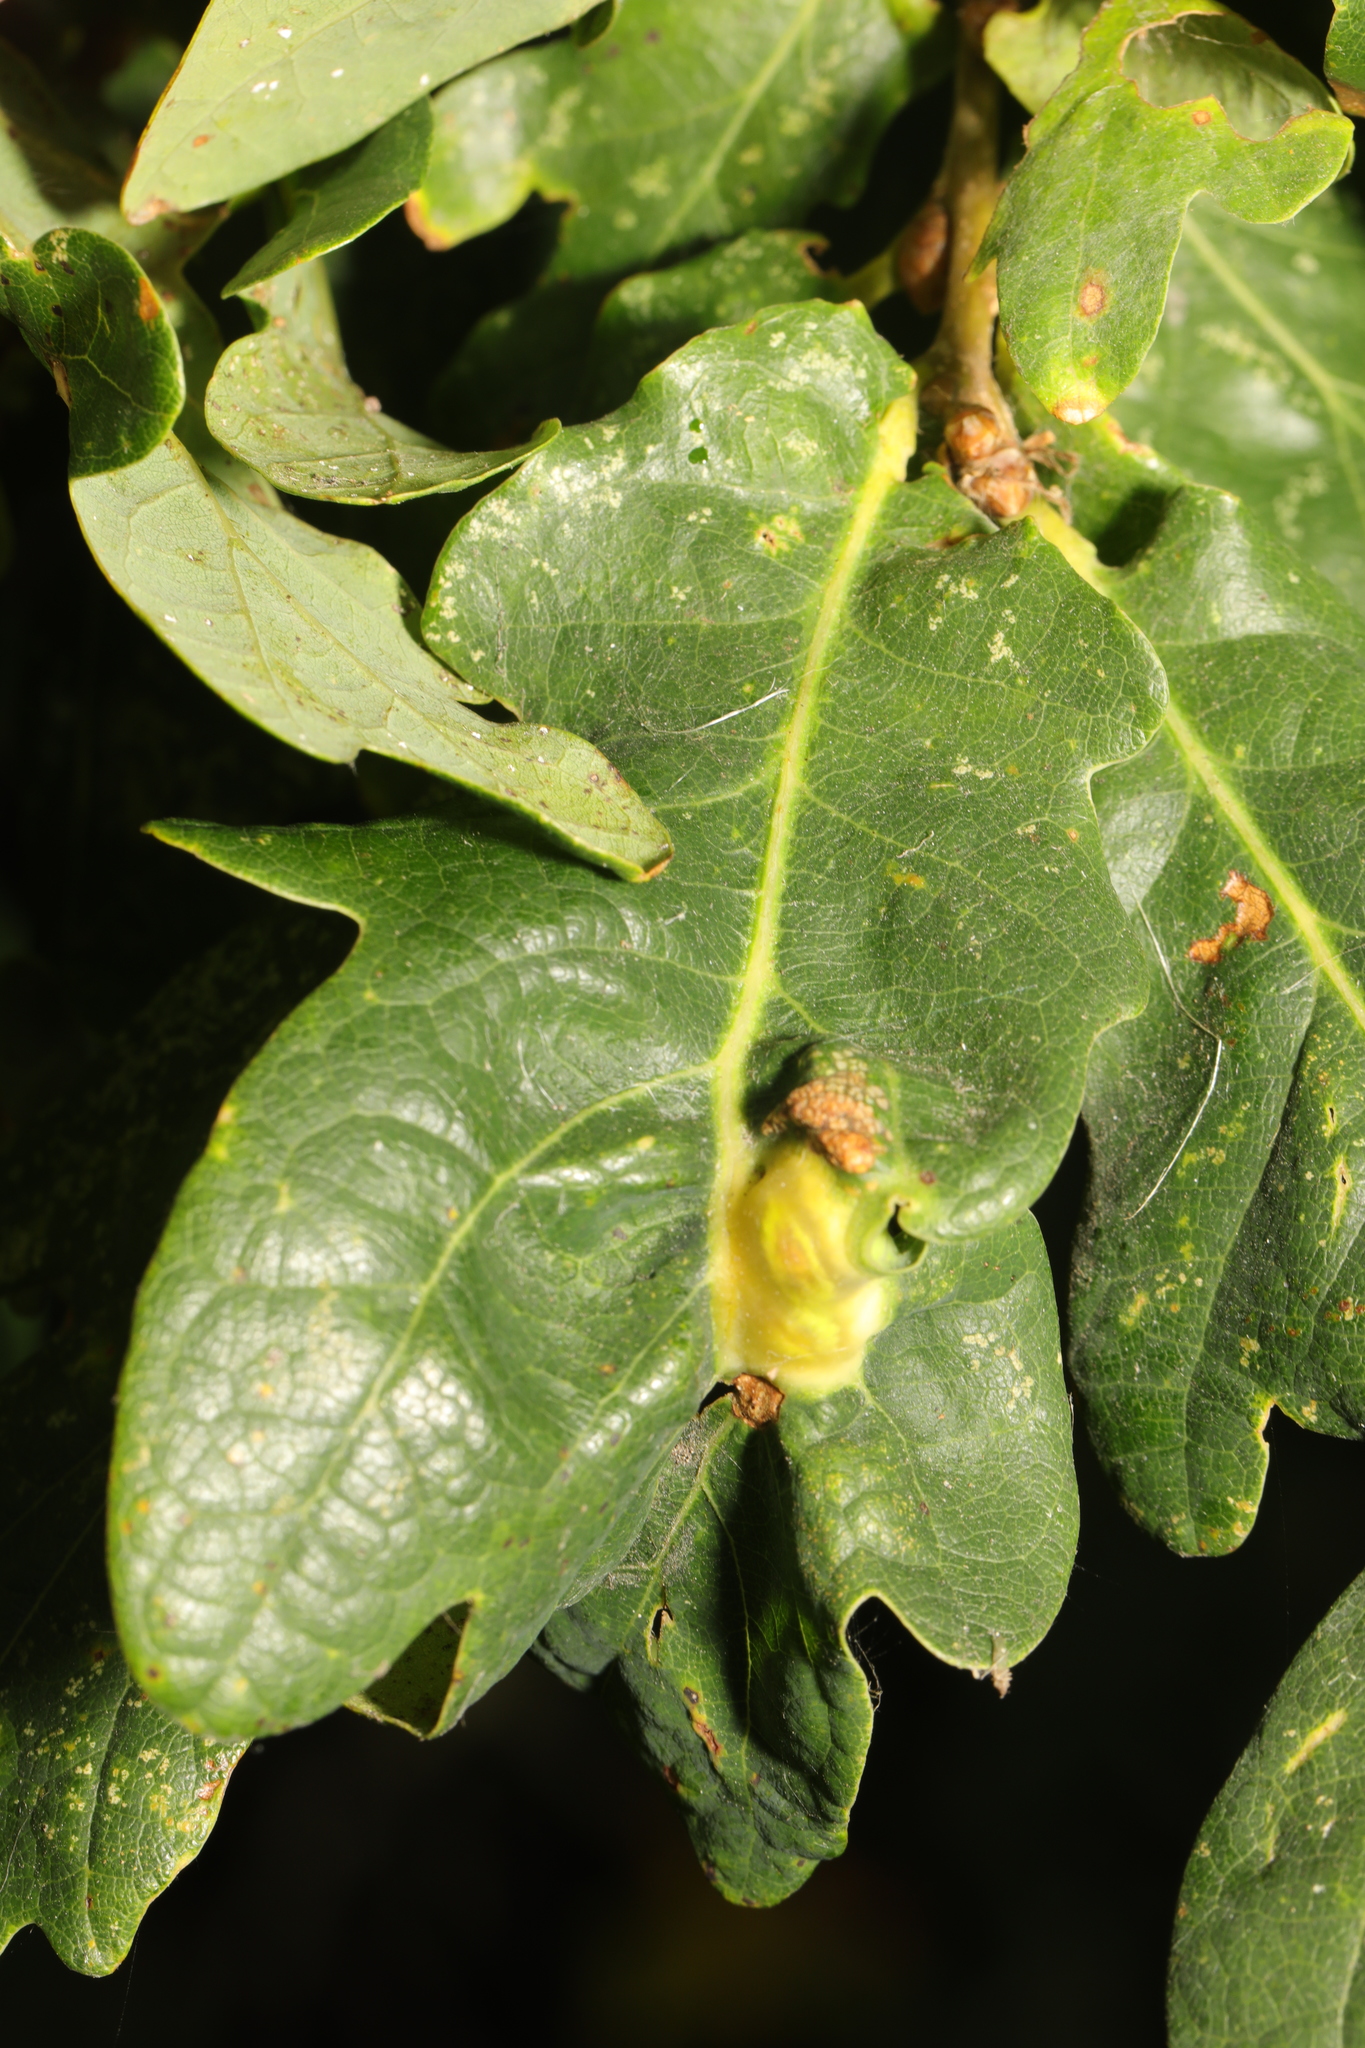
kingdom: Animalia
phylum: Arthropoda
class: Insecta
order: Hymenoptera
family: Cynipidae
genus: Andricus
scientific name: Andricus curvator
